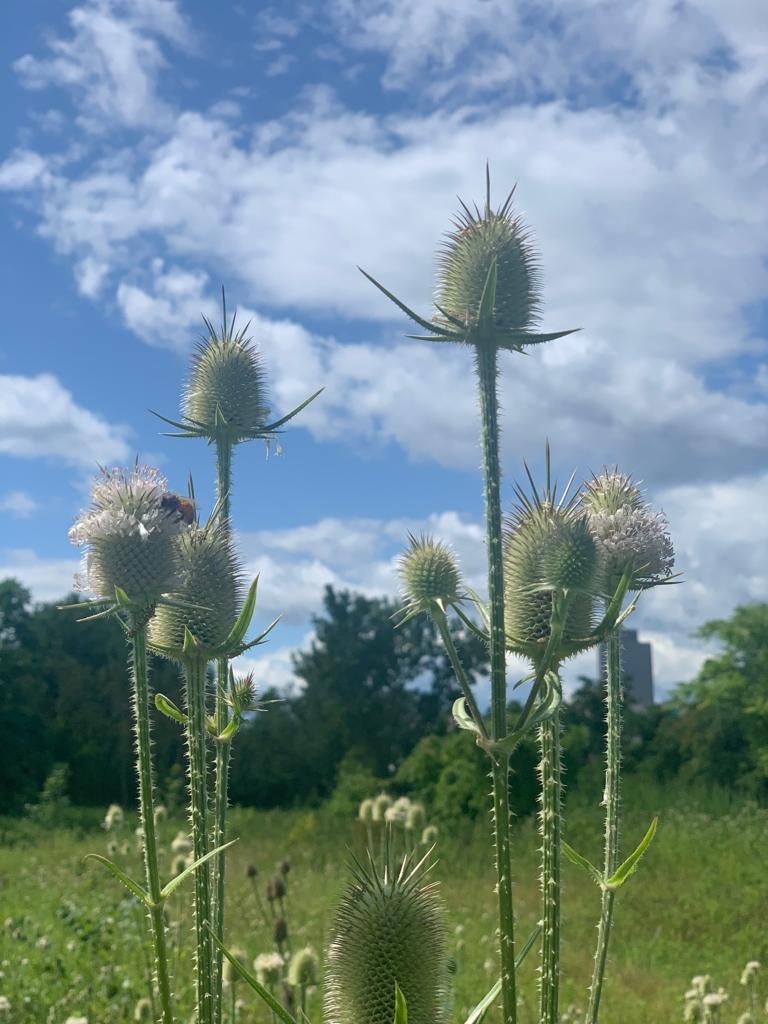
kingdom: Animalia
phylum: Arthropoda
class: Insecta
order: Hymenoptera
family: Apidae
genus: Apis
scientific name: Apis mellifera
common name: Honey bee
